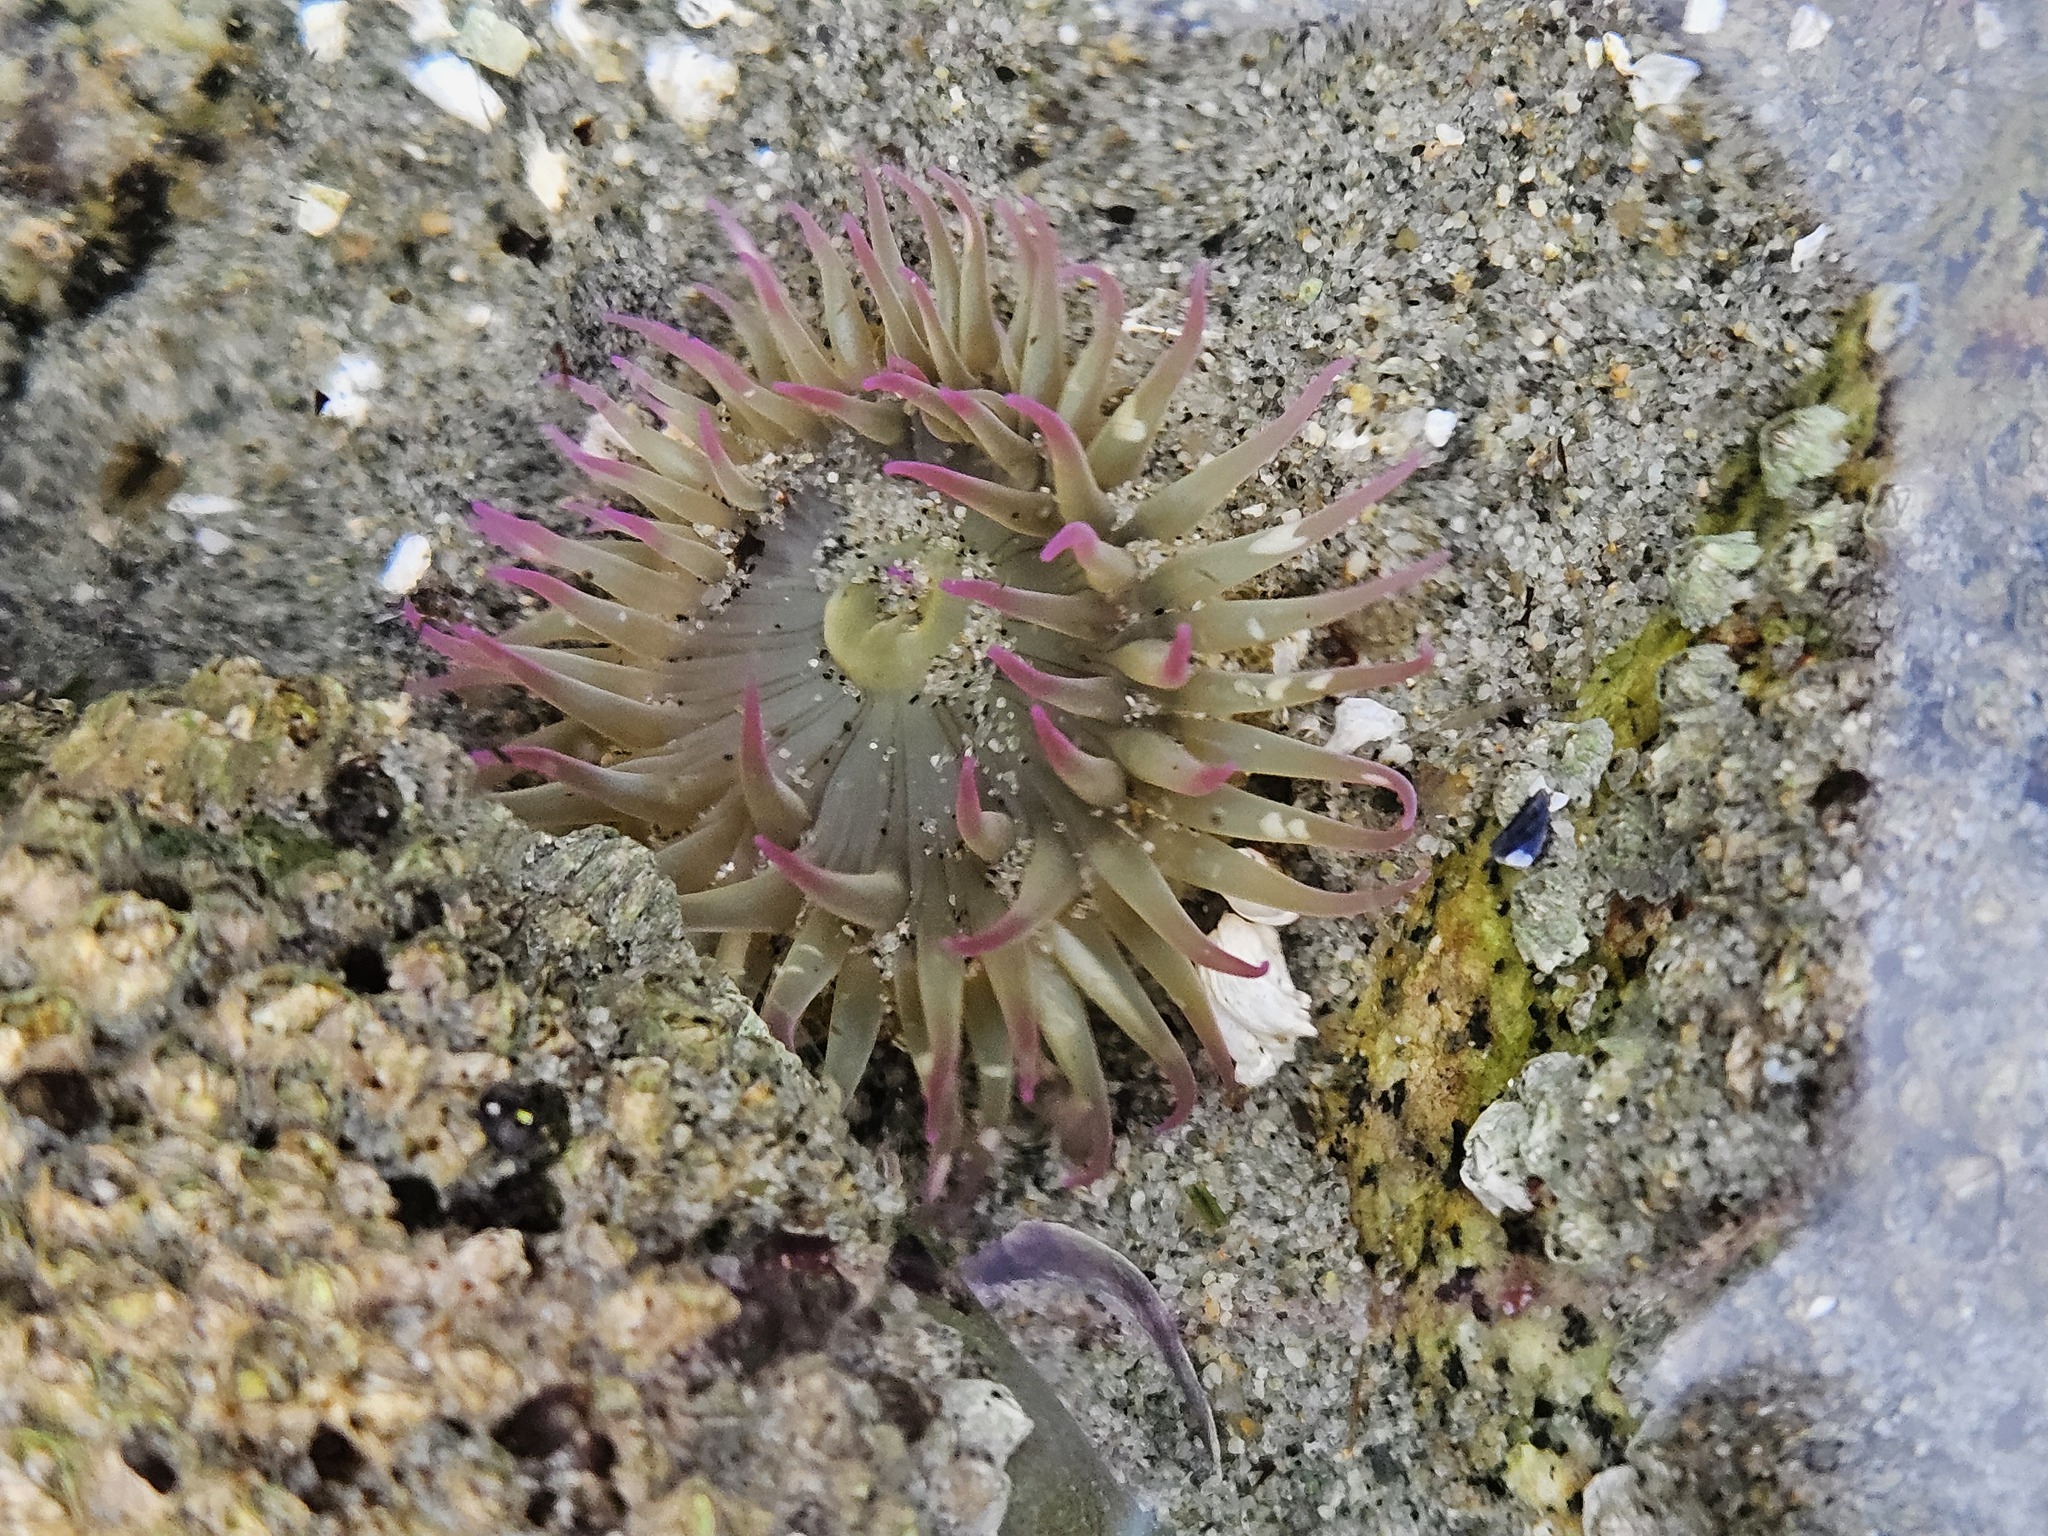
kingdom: Animalia
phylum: Cnidaria
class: Anthozoa
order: Actiniaria
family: Actiniidae
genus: Anthopleura
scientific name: Anthopleura elegantissima
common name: Clonal anemone
